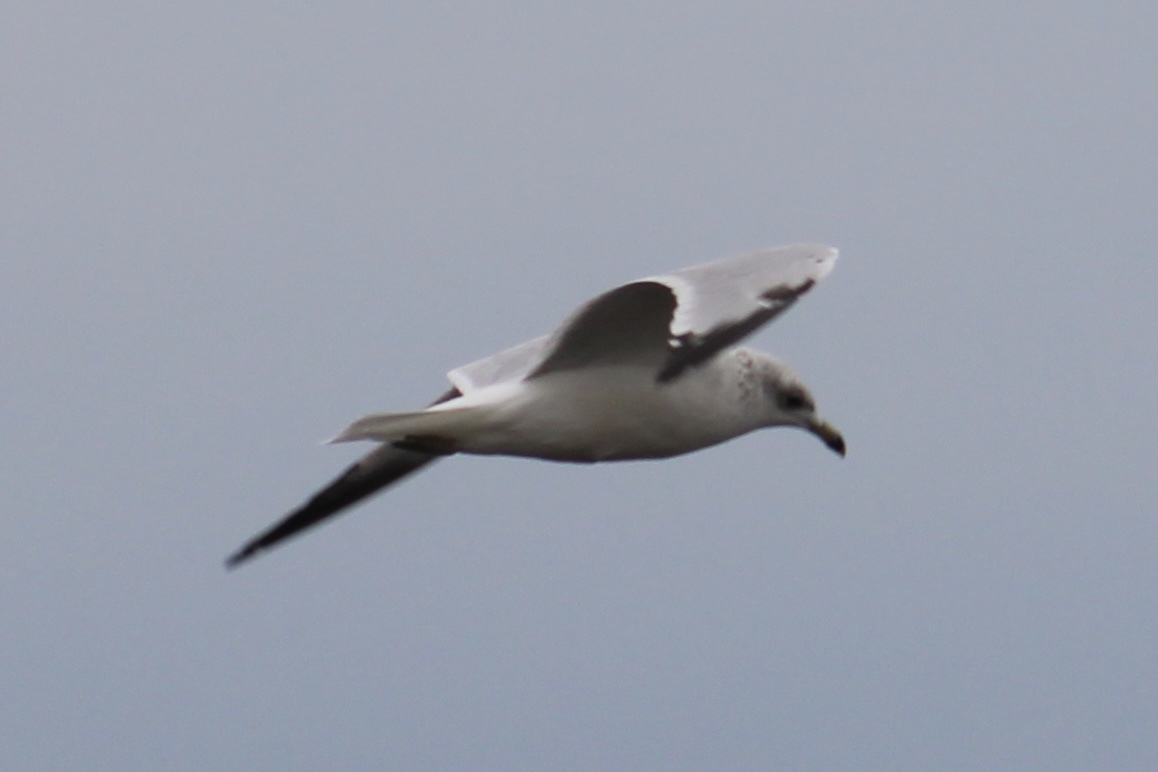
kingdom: Animalia
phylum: Chordata
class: Aves
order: Charadriiformes
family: Laridae
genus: Larus
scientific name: Larus delawarensis
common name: Ring-billed gull
